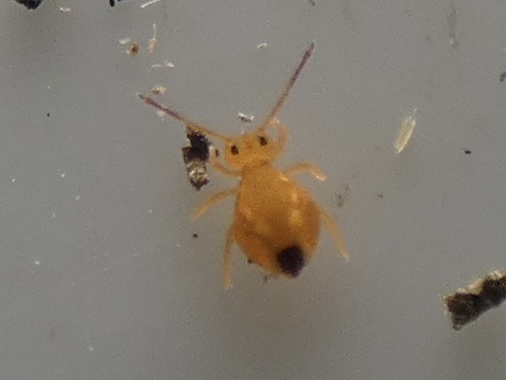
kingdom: Animalia
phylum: Arthropoda
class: Collembola
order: Symphypleona
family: Dicyrtomidae
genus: Dicyrtomina
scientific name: Dicyrtomina minuta
